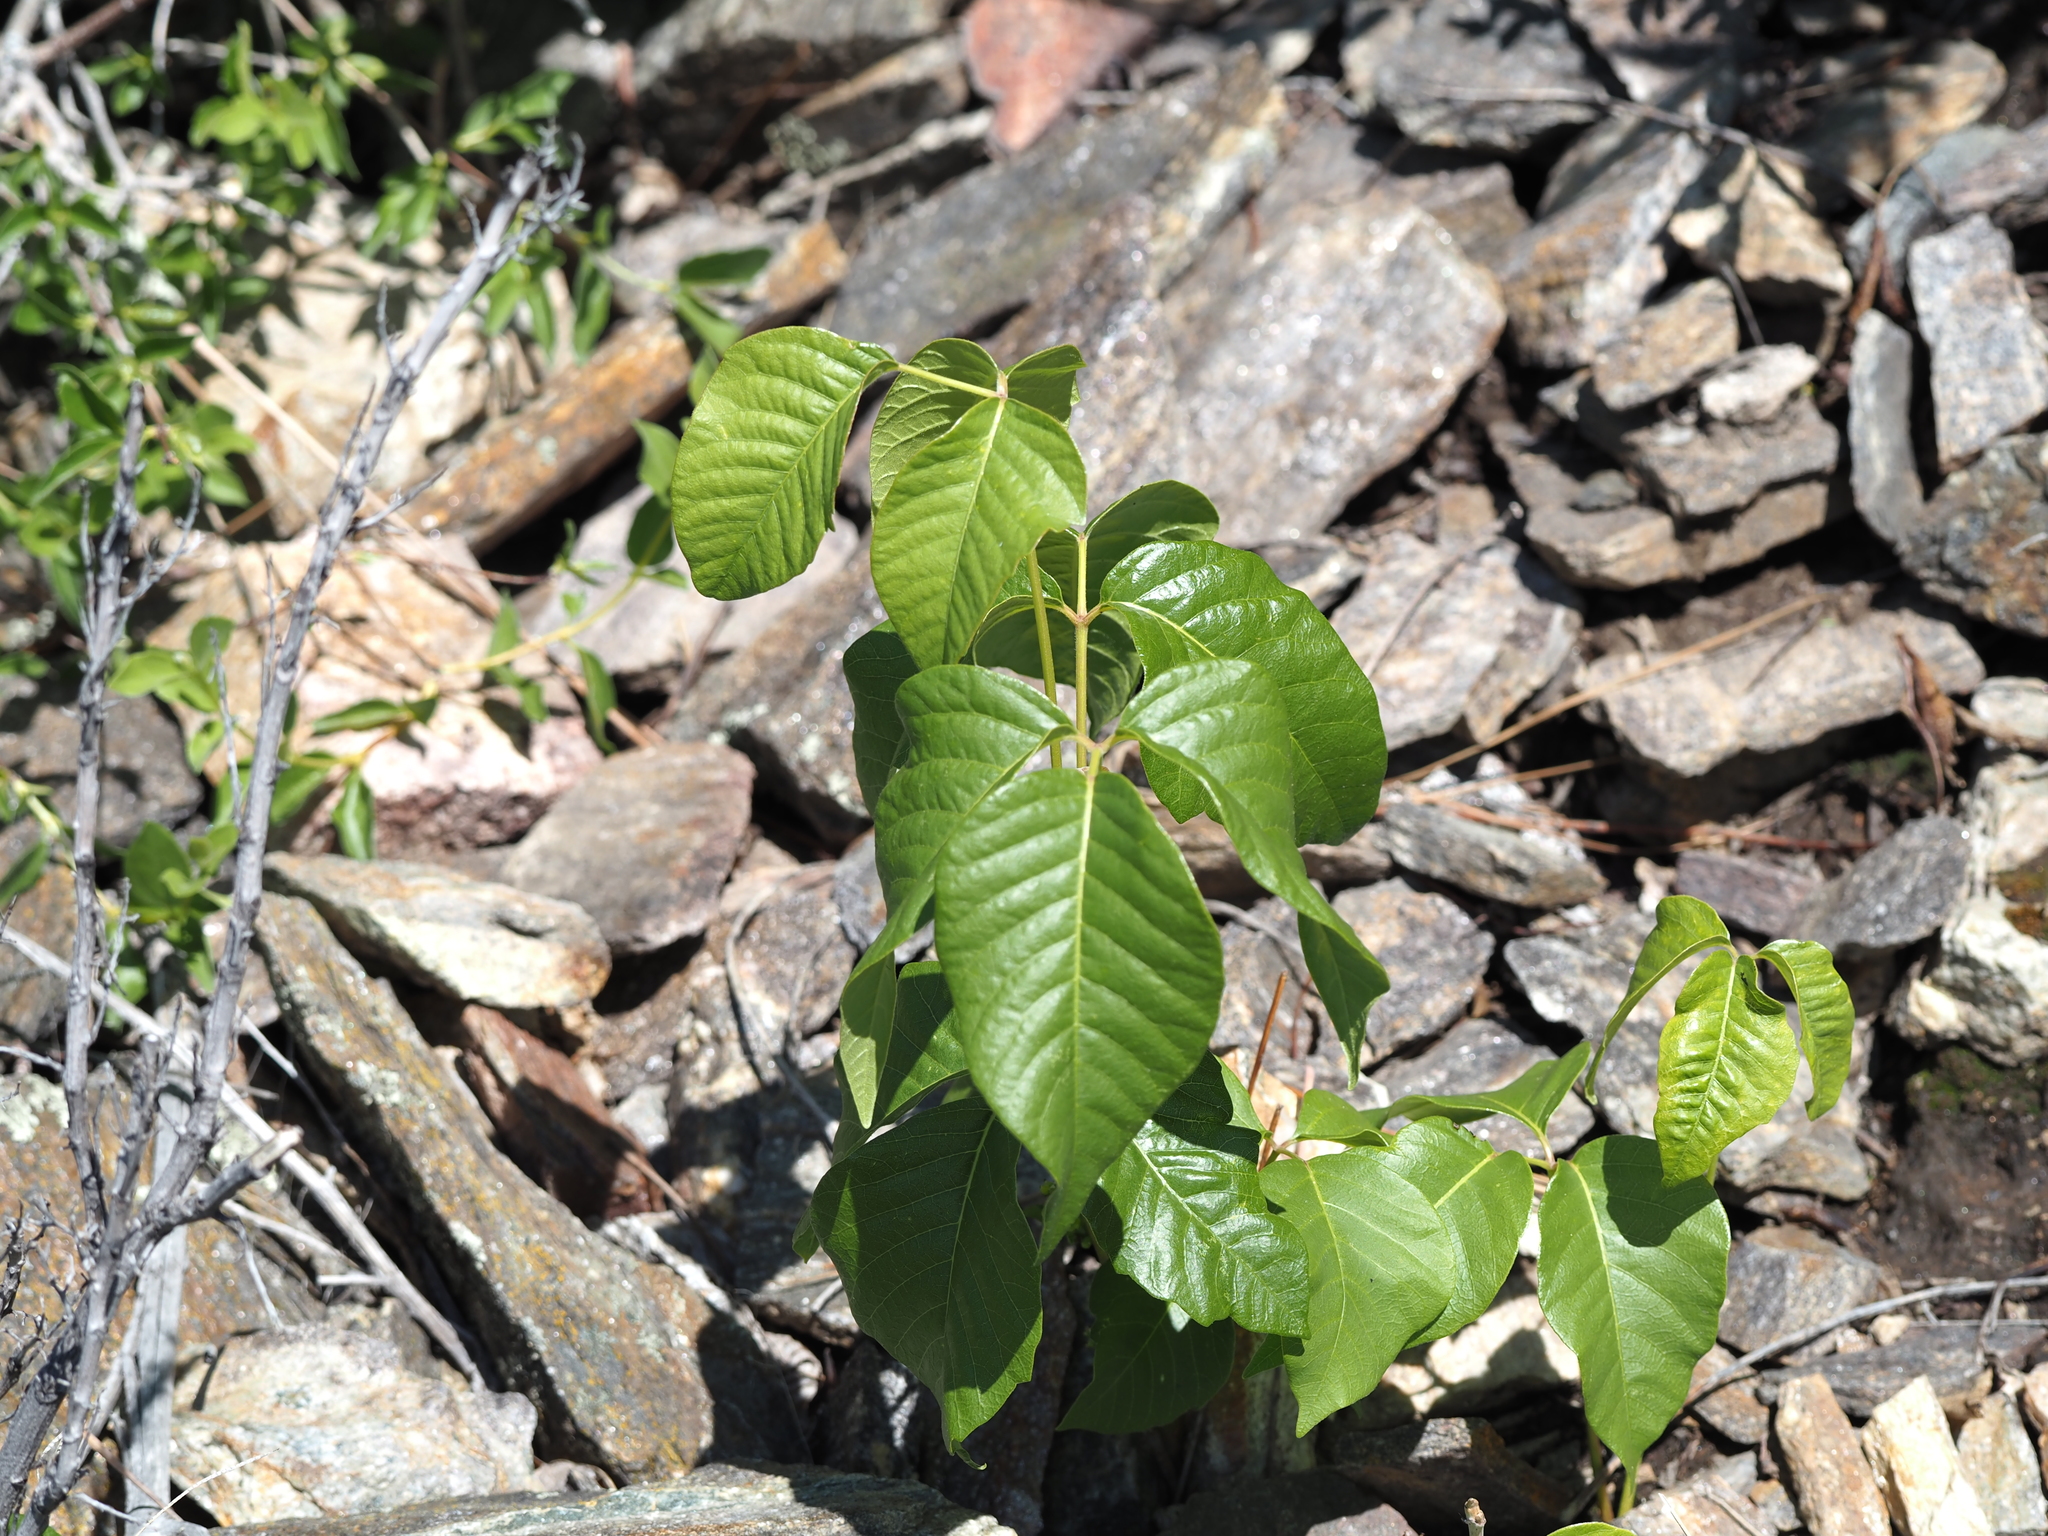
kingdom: Plantae
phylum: Tracheophyta
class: Magnoliopsida
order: Sapindales
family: Anacardiaceae
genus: Toxicodendron
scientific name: Toxicodendron rydbergii
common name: Rydberg's poison-ivy
